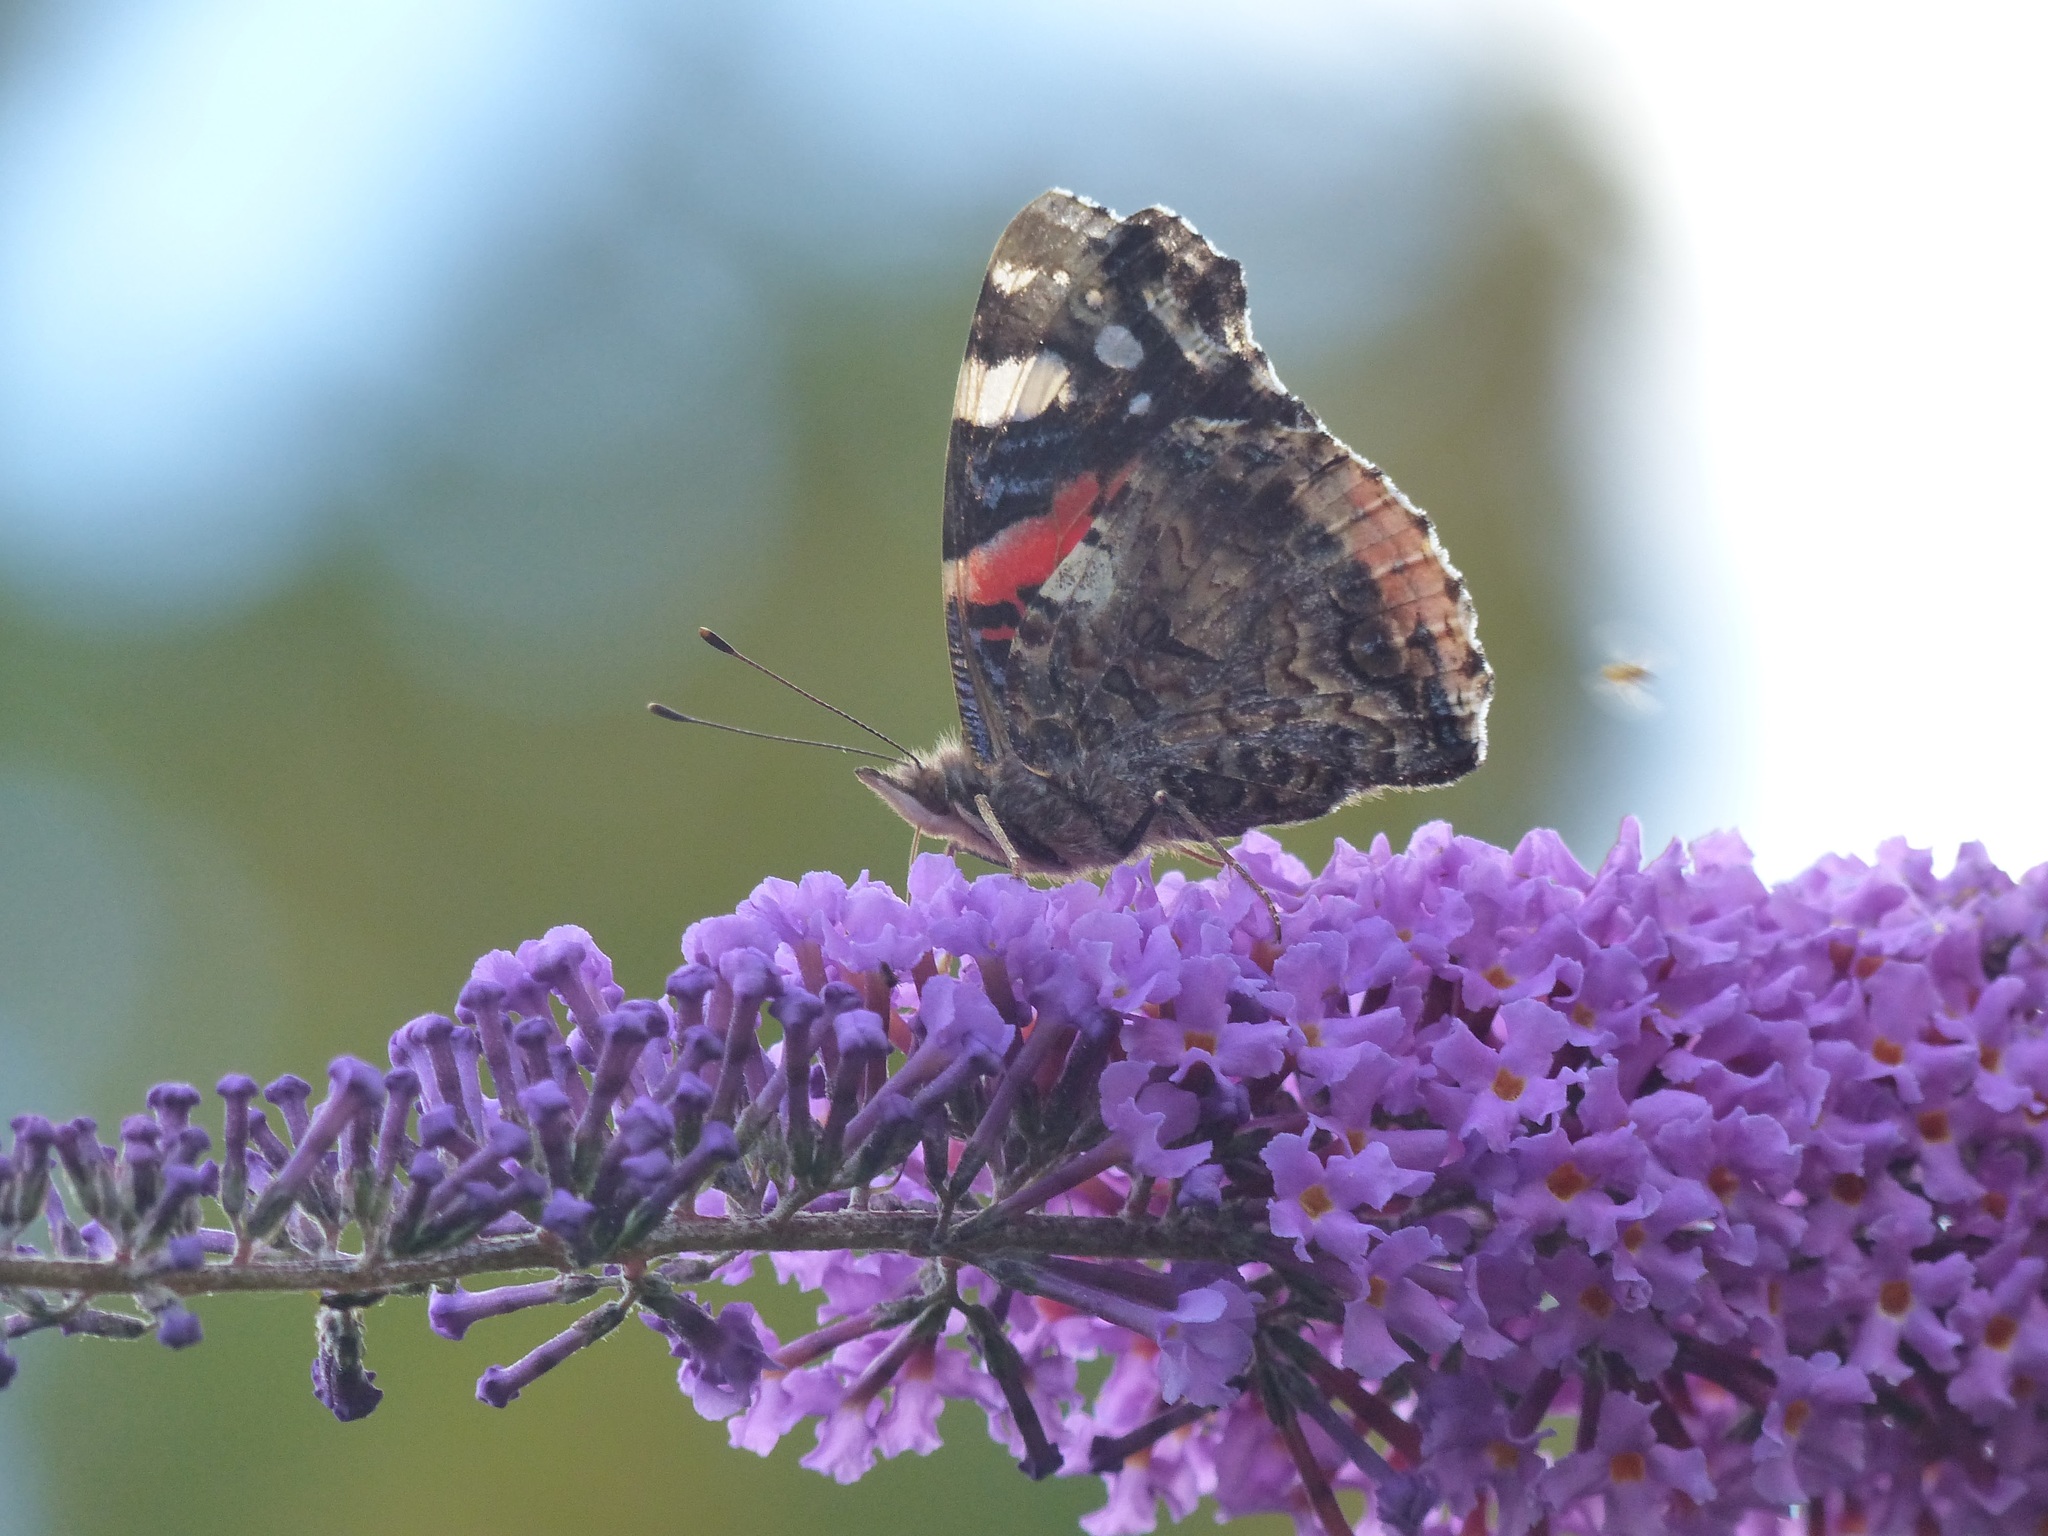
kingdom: Animalia
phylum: Arthropoda
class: Insecta
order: Lepidoptera
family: Nymphalidae
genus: Vanessa
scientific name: Vanessa atalanta
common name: Red admiral
